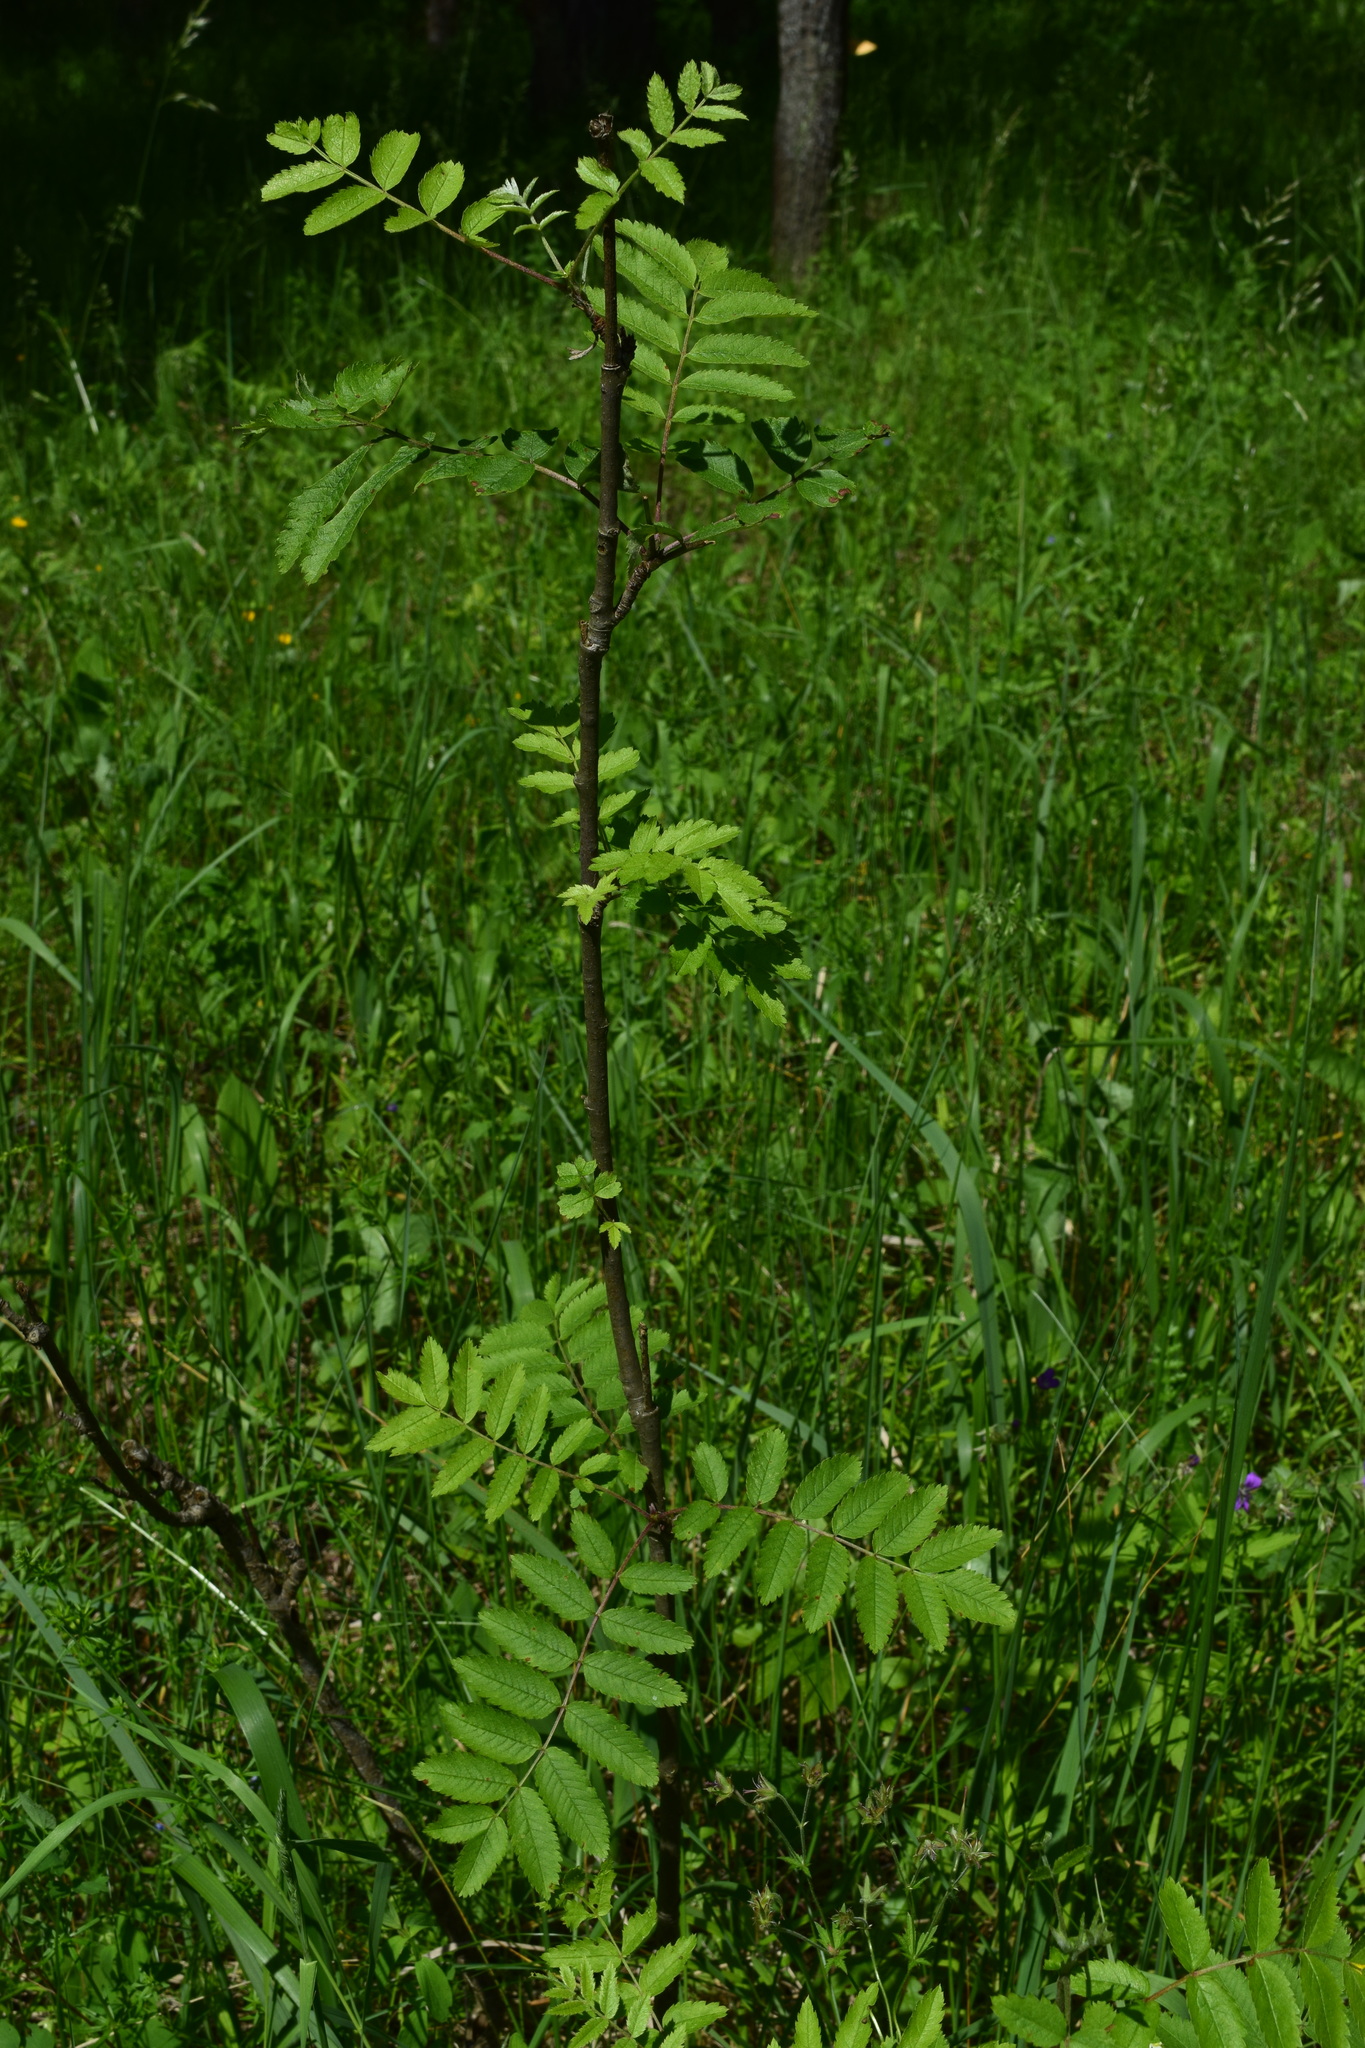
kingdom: Plantae
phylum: Tracheophyta
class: Magnoliopsida
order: Rosales
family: Rosaceae
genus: Sorbus
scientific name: Sorbus aucuparia
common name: Rowan
